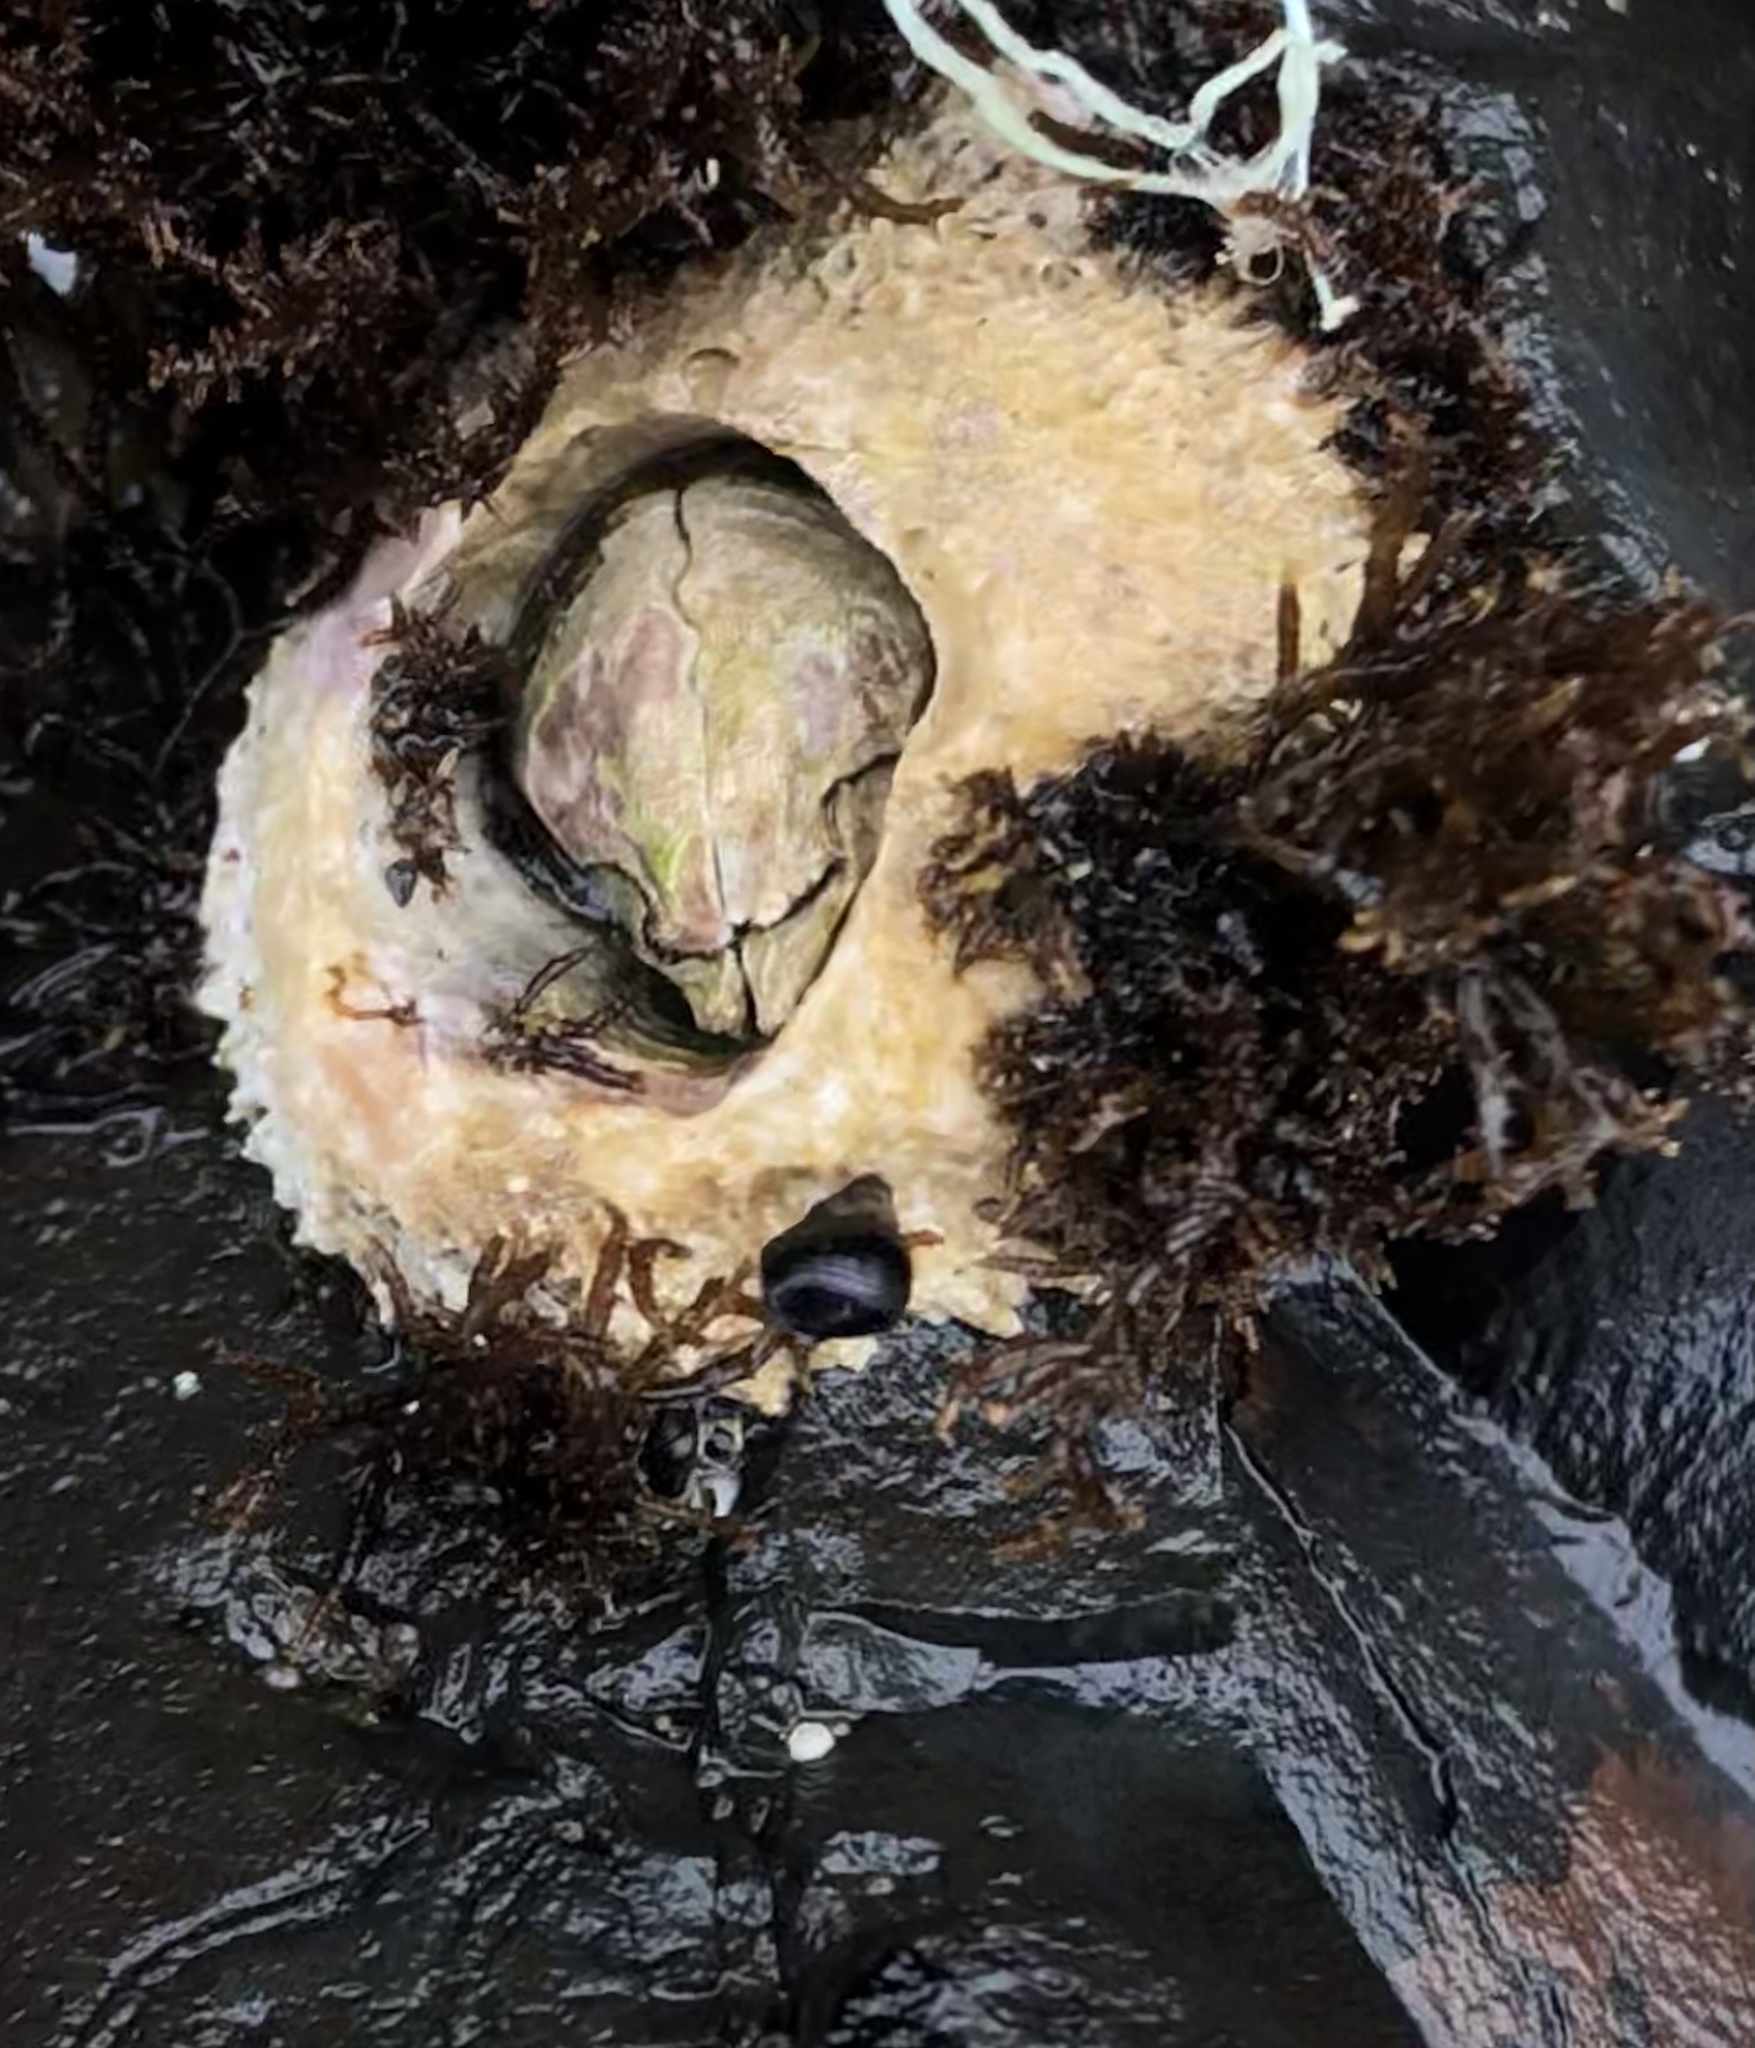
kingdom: Animalia
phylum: Arthropoda
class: Maxillopoda
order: Sessilia
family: Archaeobalanidae
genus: Semibalanus
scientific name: Semibalanus cariosus
